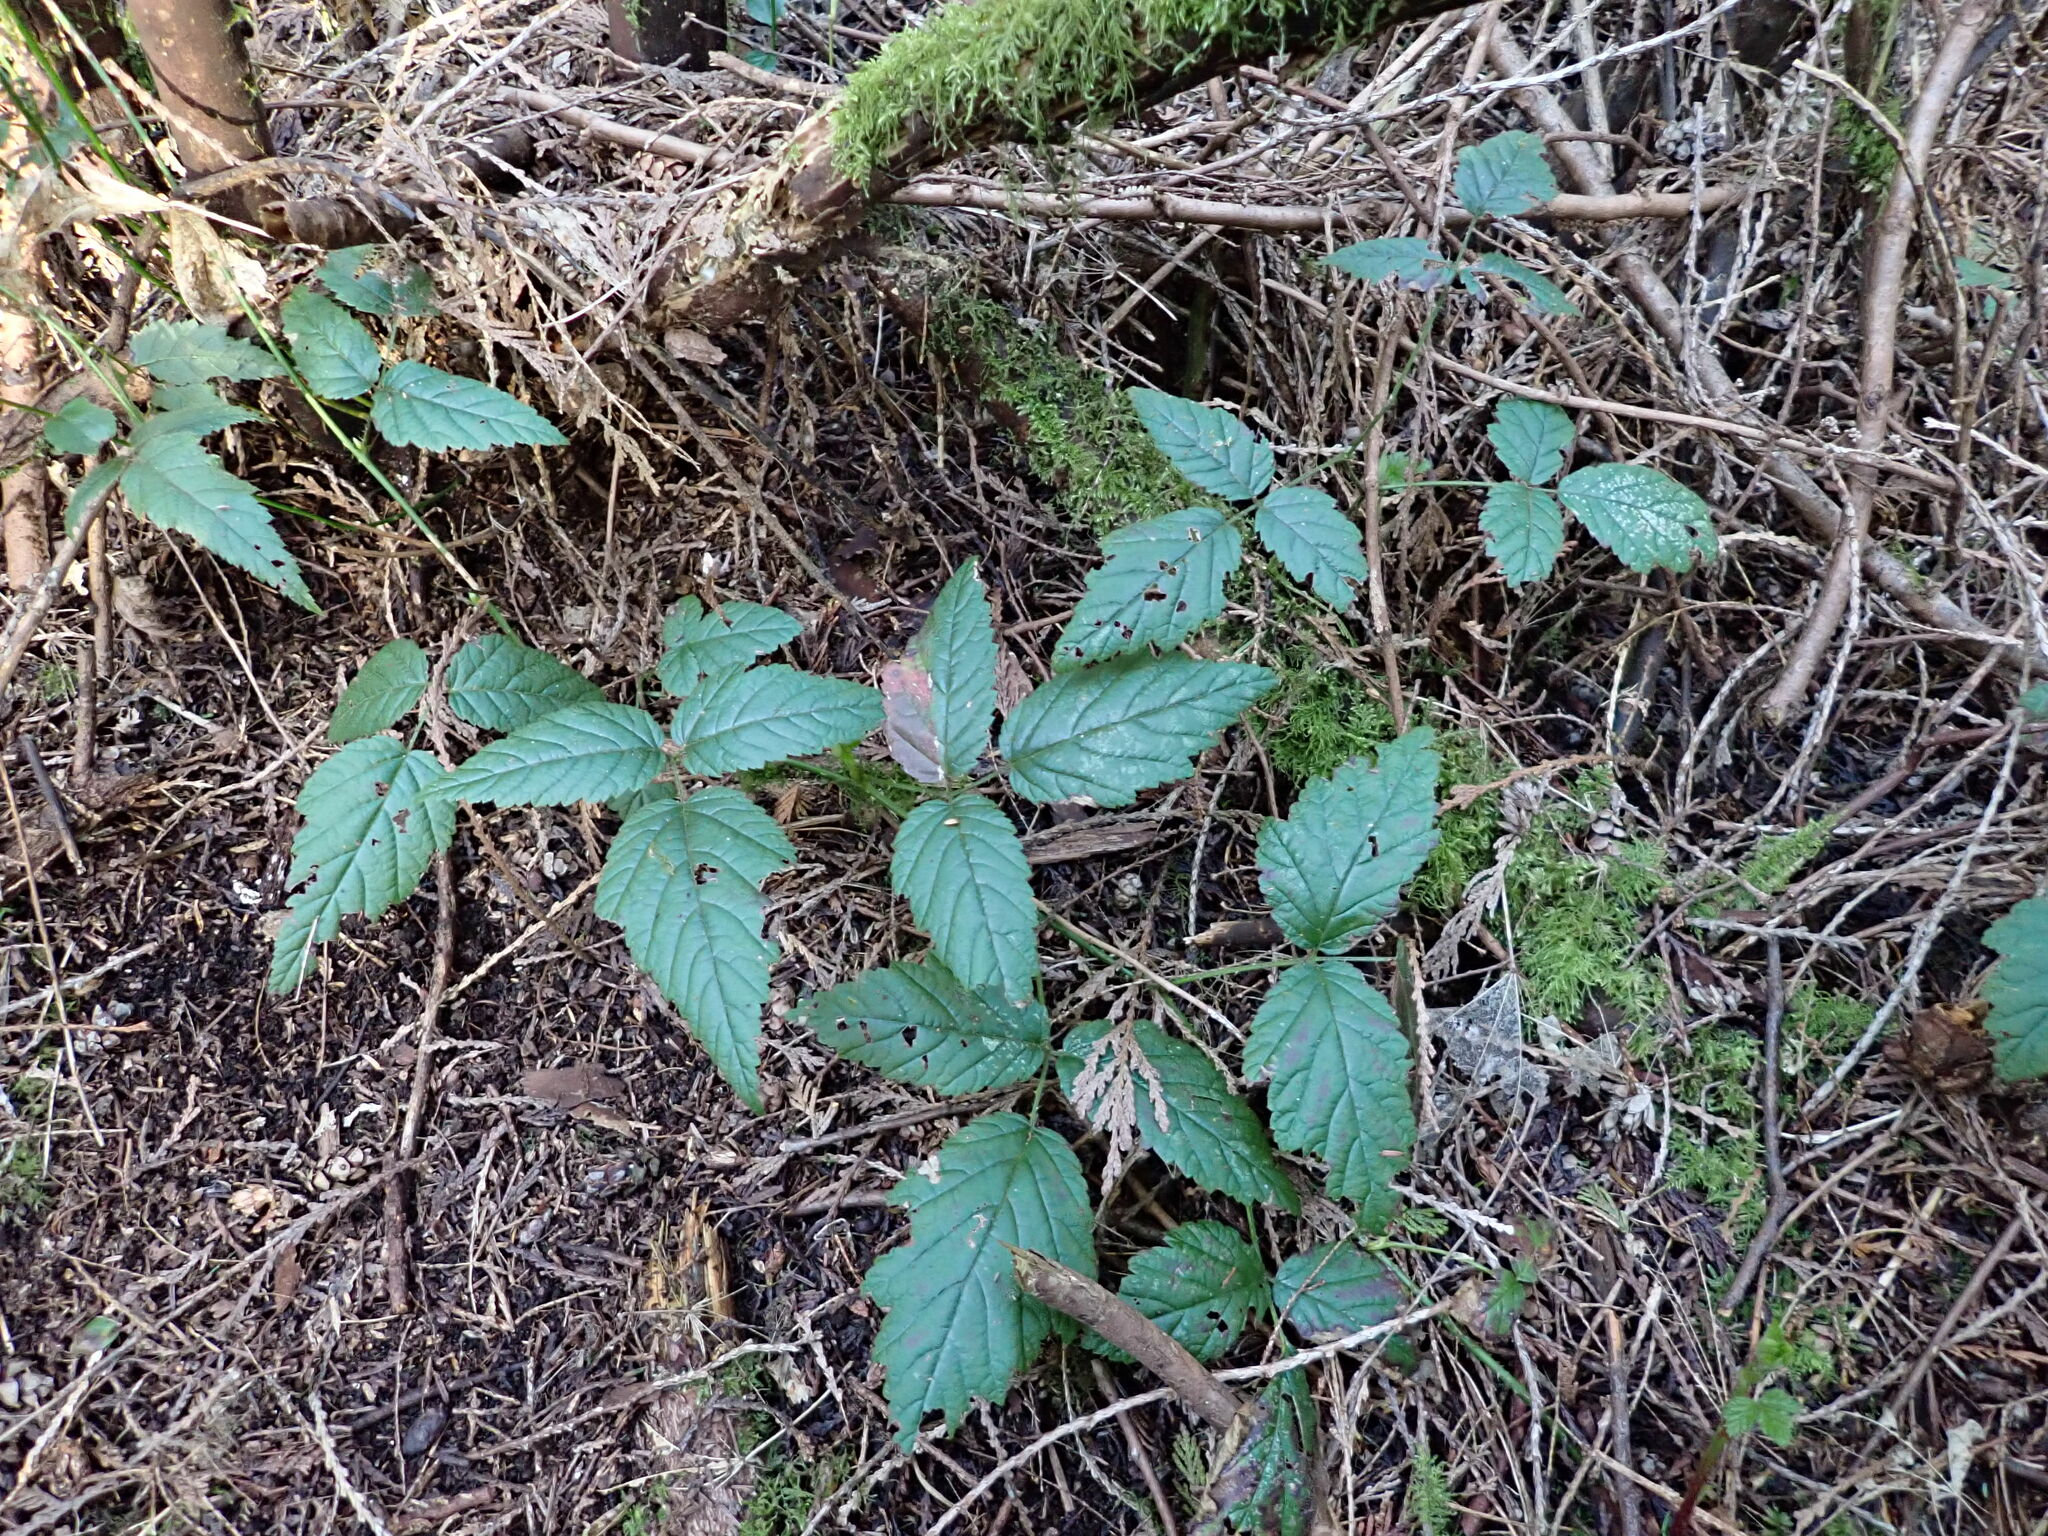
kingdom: Plantae
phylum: Tracheophyta
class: Magnoliopsida
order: Rosales
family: Rosaceae
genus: Rubus
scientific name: Rubus ursinus
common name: Pacific blackberry
